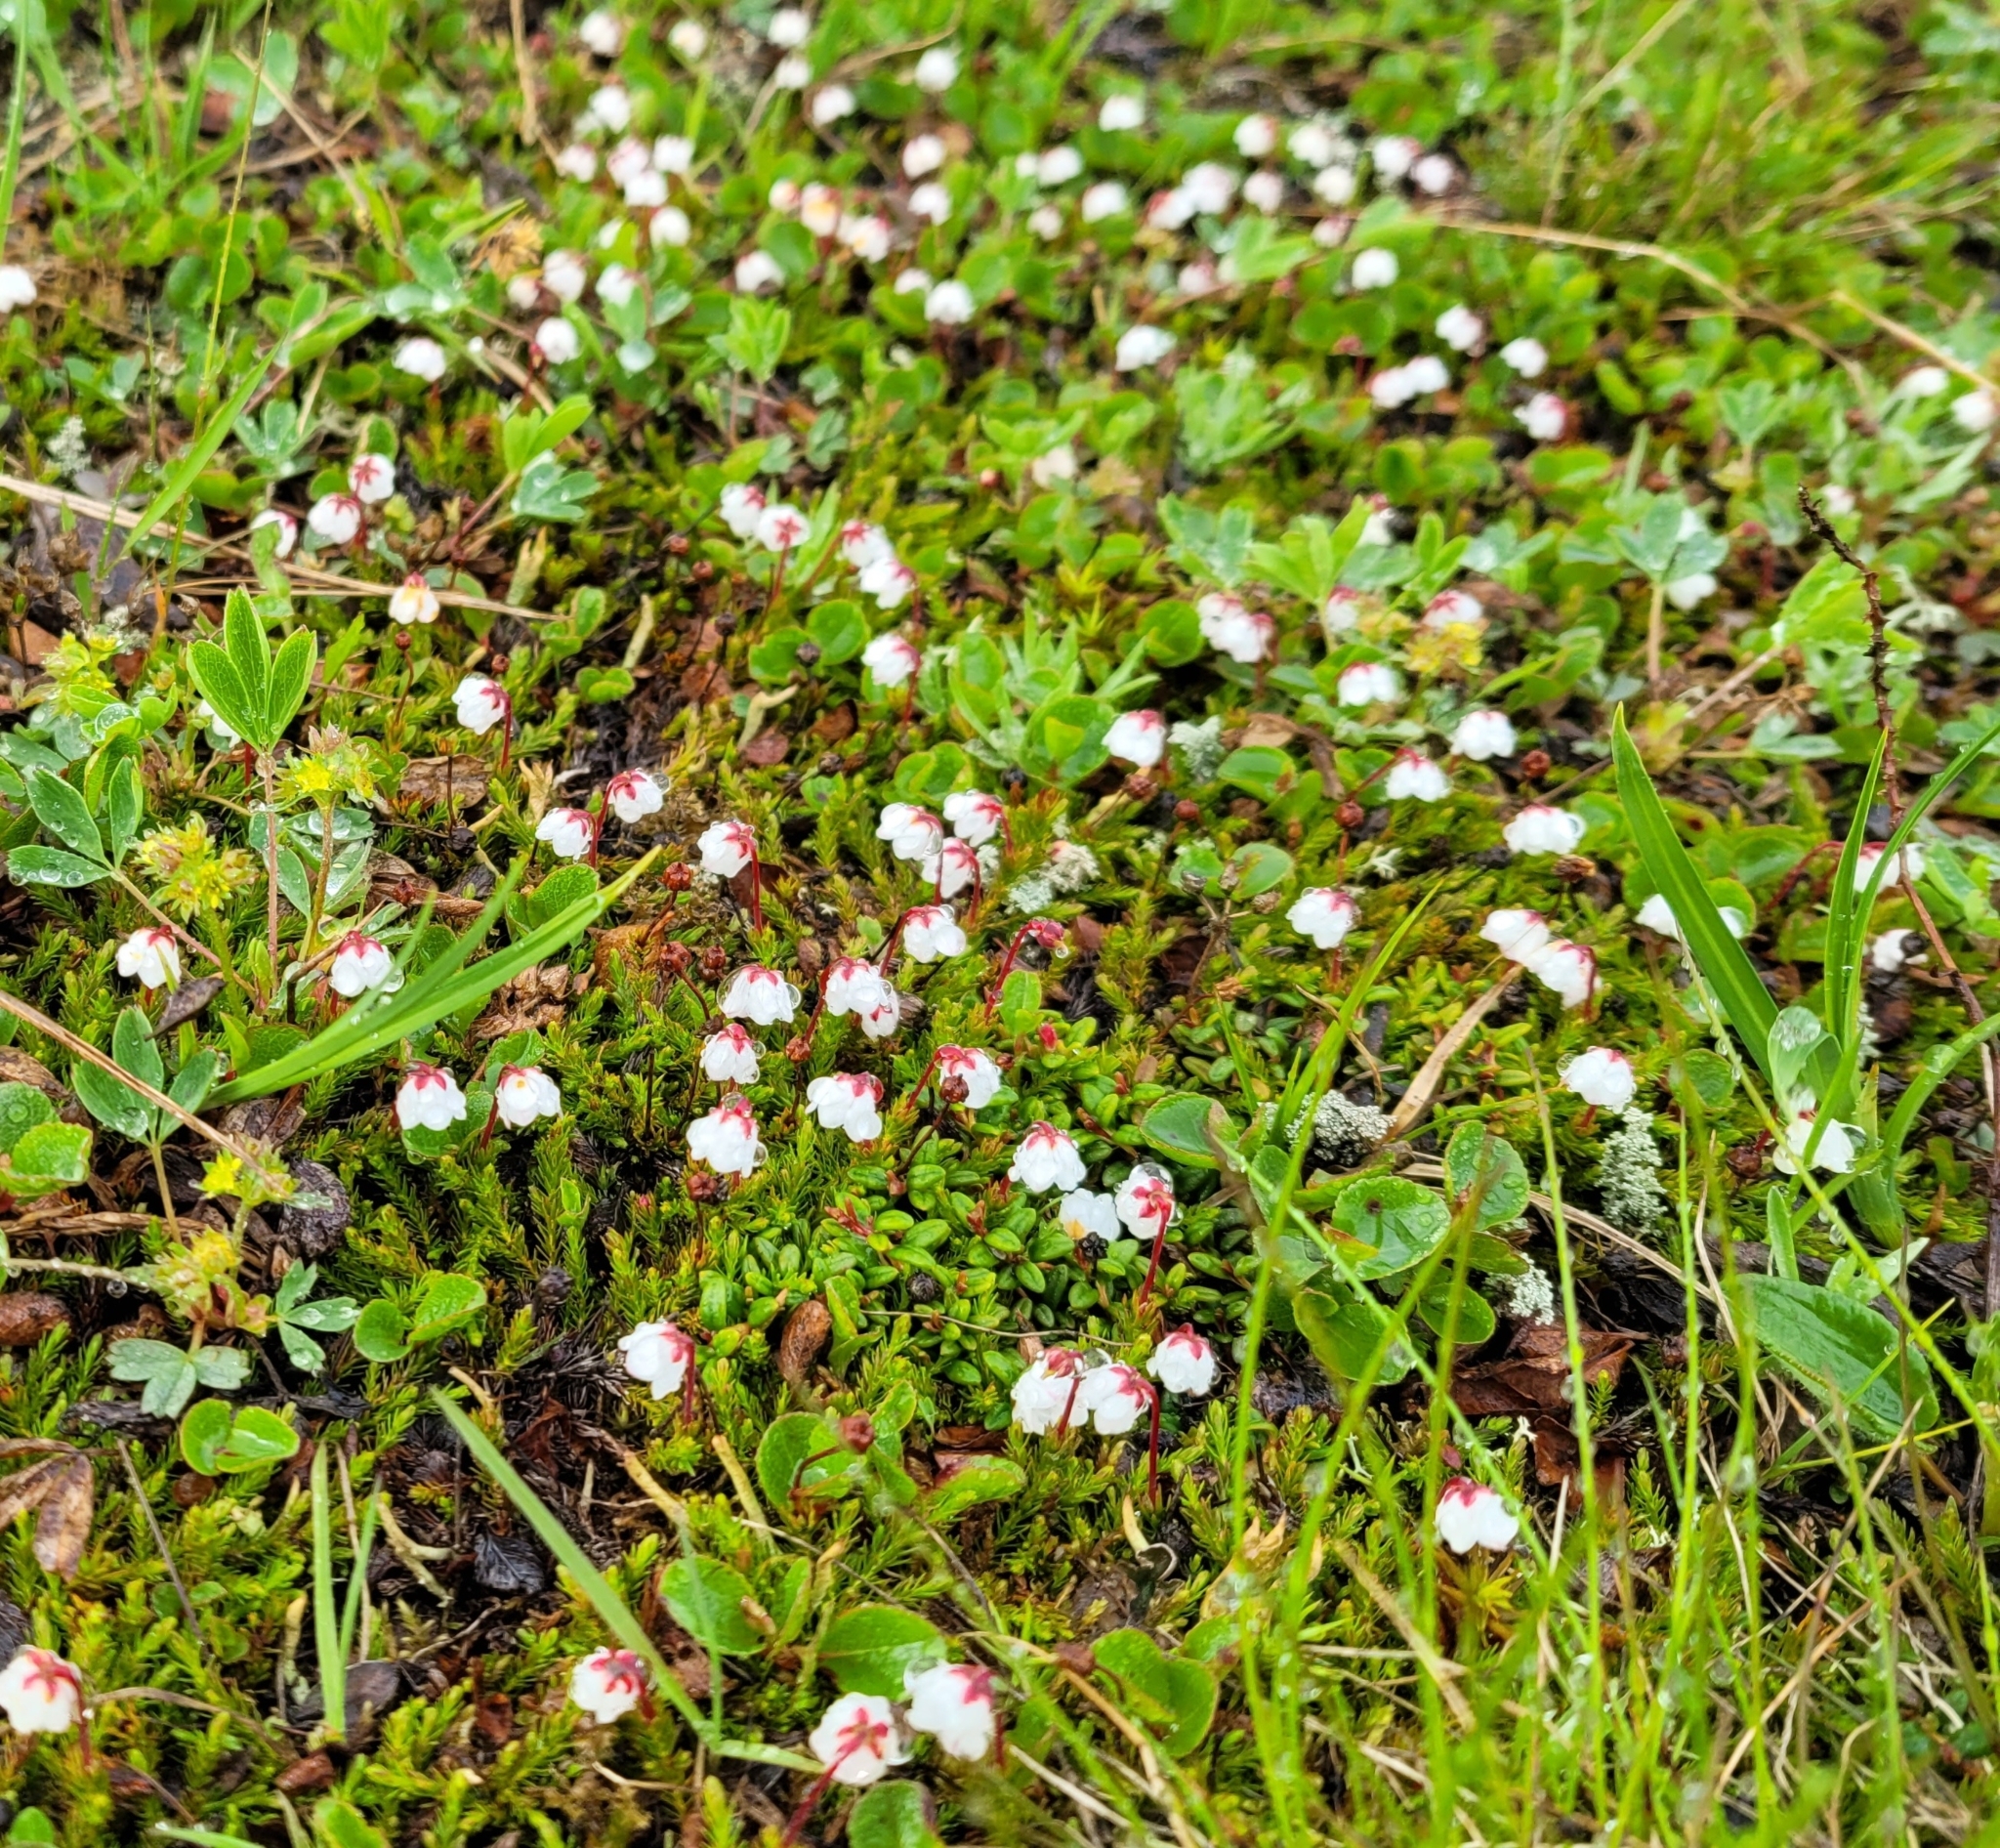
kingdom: Plantae
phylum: Tracheophyta
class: Magnoliopsida
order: Ericales
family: Ericaceae
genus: Harrimanella
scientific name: Harrimanella hypnoides
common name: Moss bell heather
